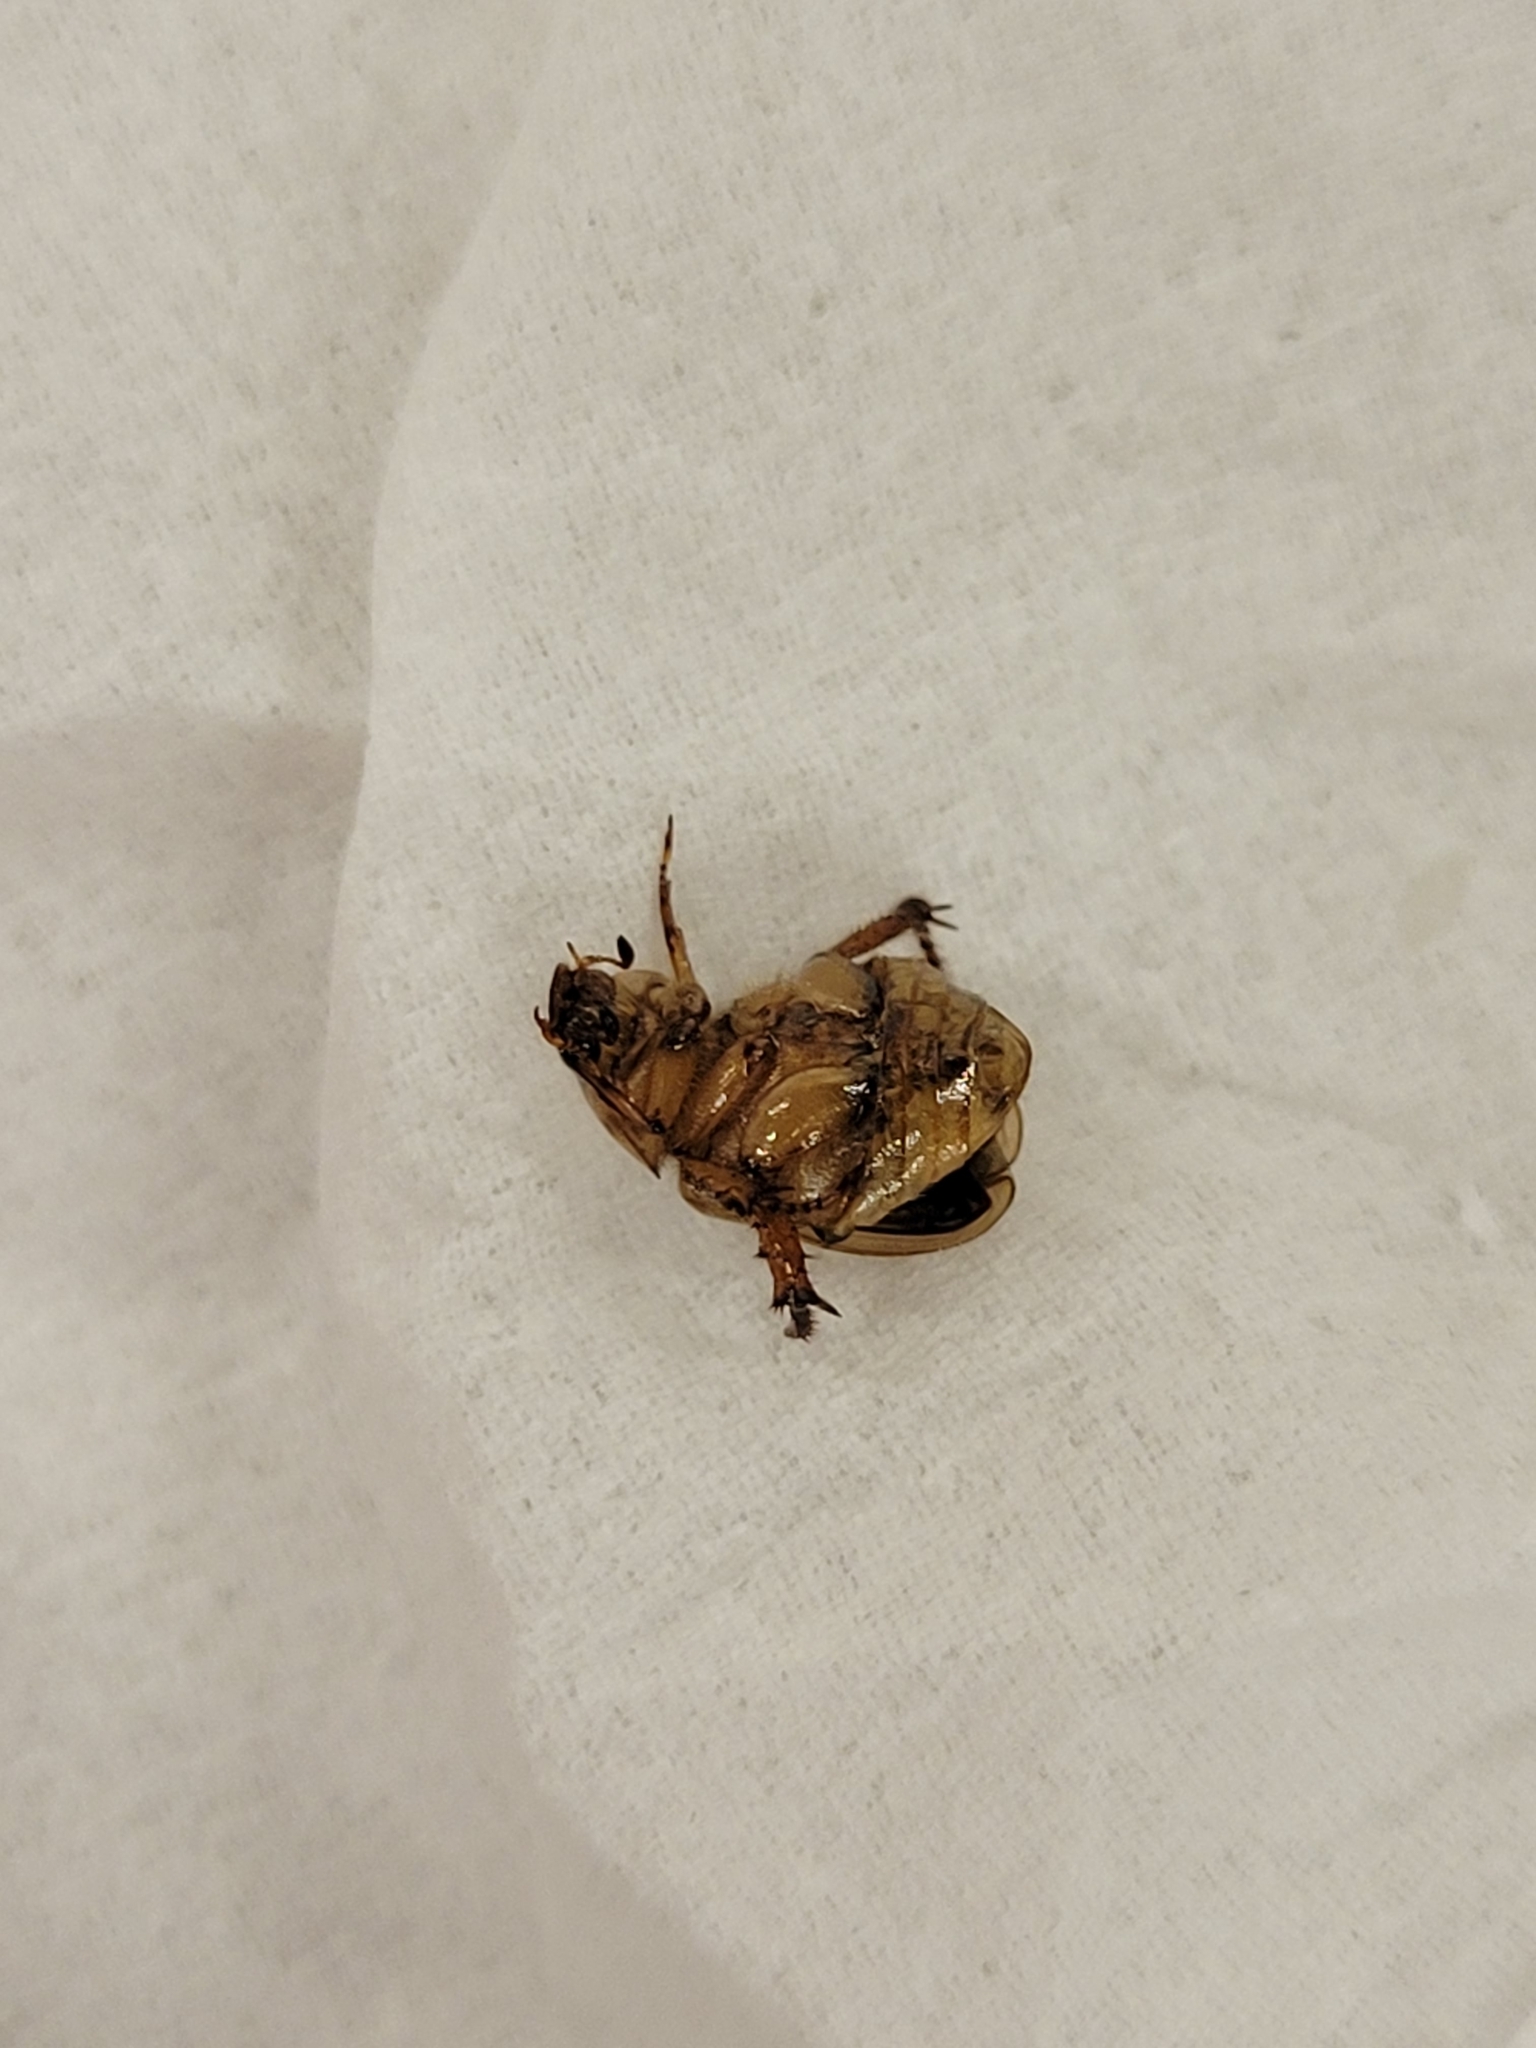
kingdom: Animalia
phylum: Arthropoda
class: Insecta
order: Coleoptera
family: Scarabaeidae
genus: Exomala
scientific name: Exomala orientalis
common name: Oriental beetle
